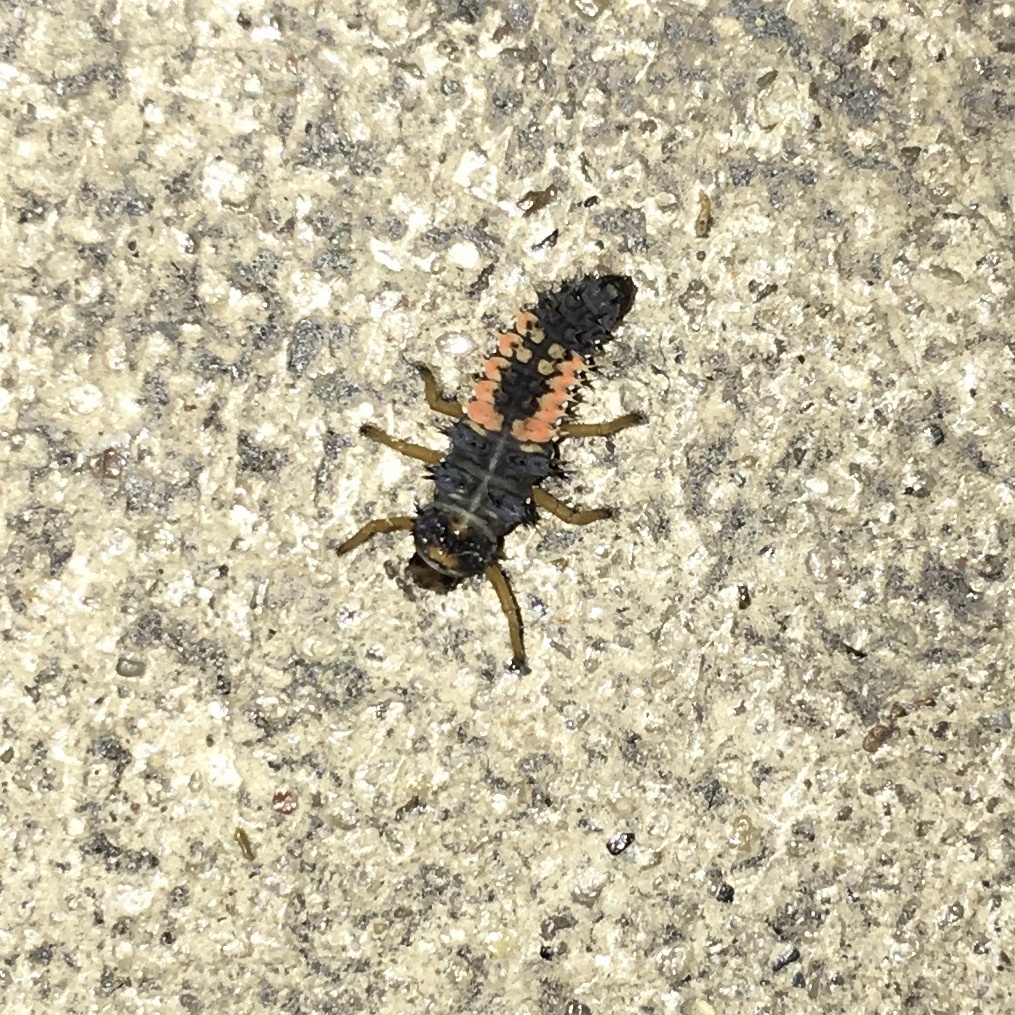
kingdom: Animalia
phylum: Arthropoda
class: Insecta
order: Coleoptera
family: Coccinellidae
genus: Harmonia
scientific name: Harmonia axyridis
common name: Harlequin ladybird
